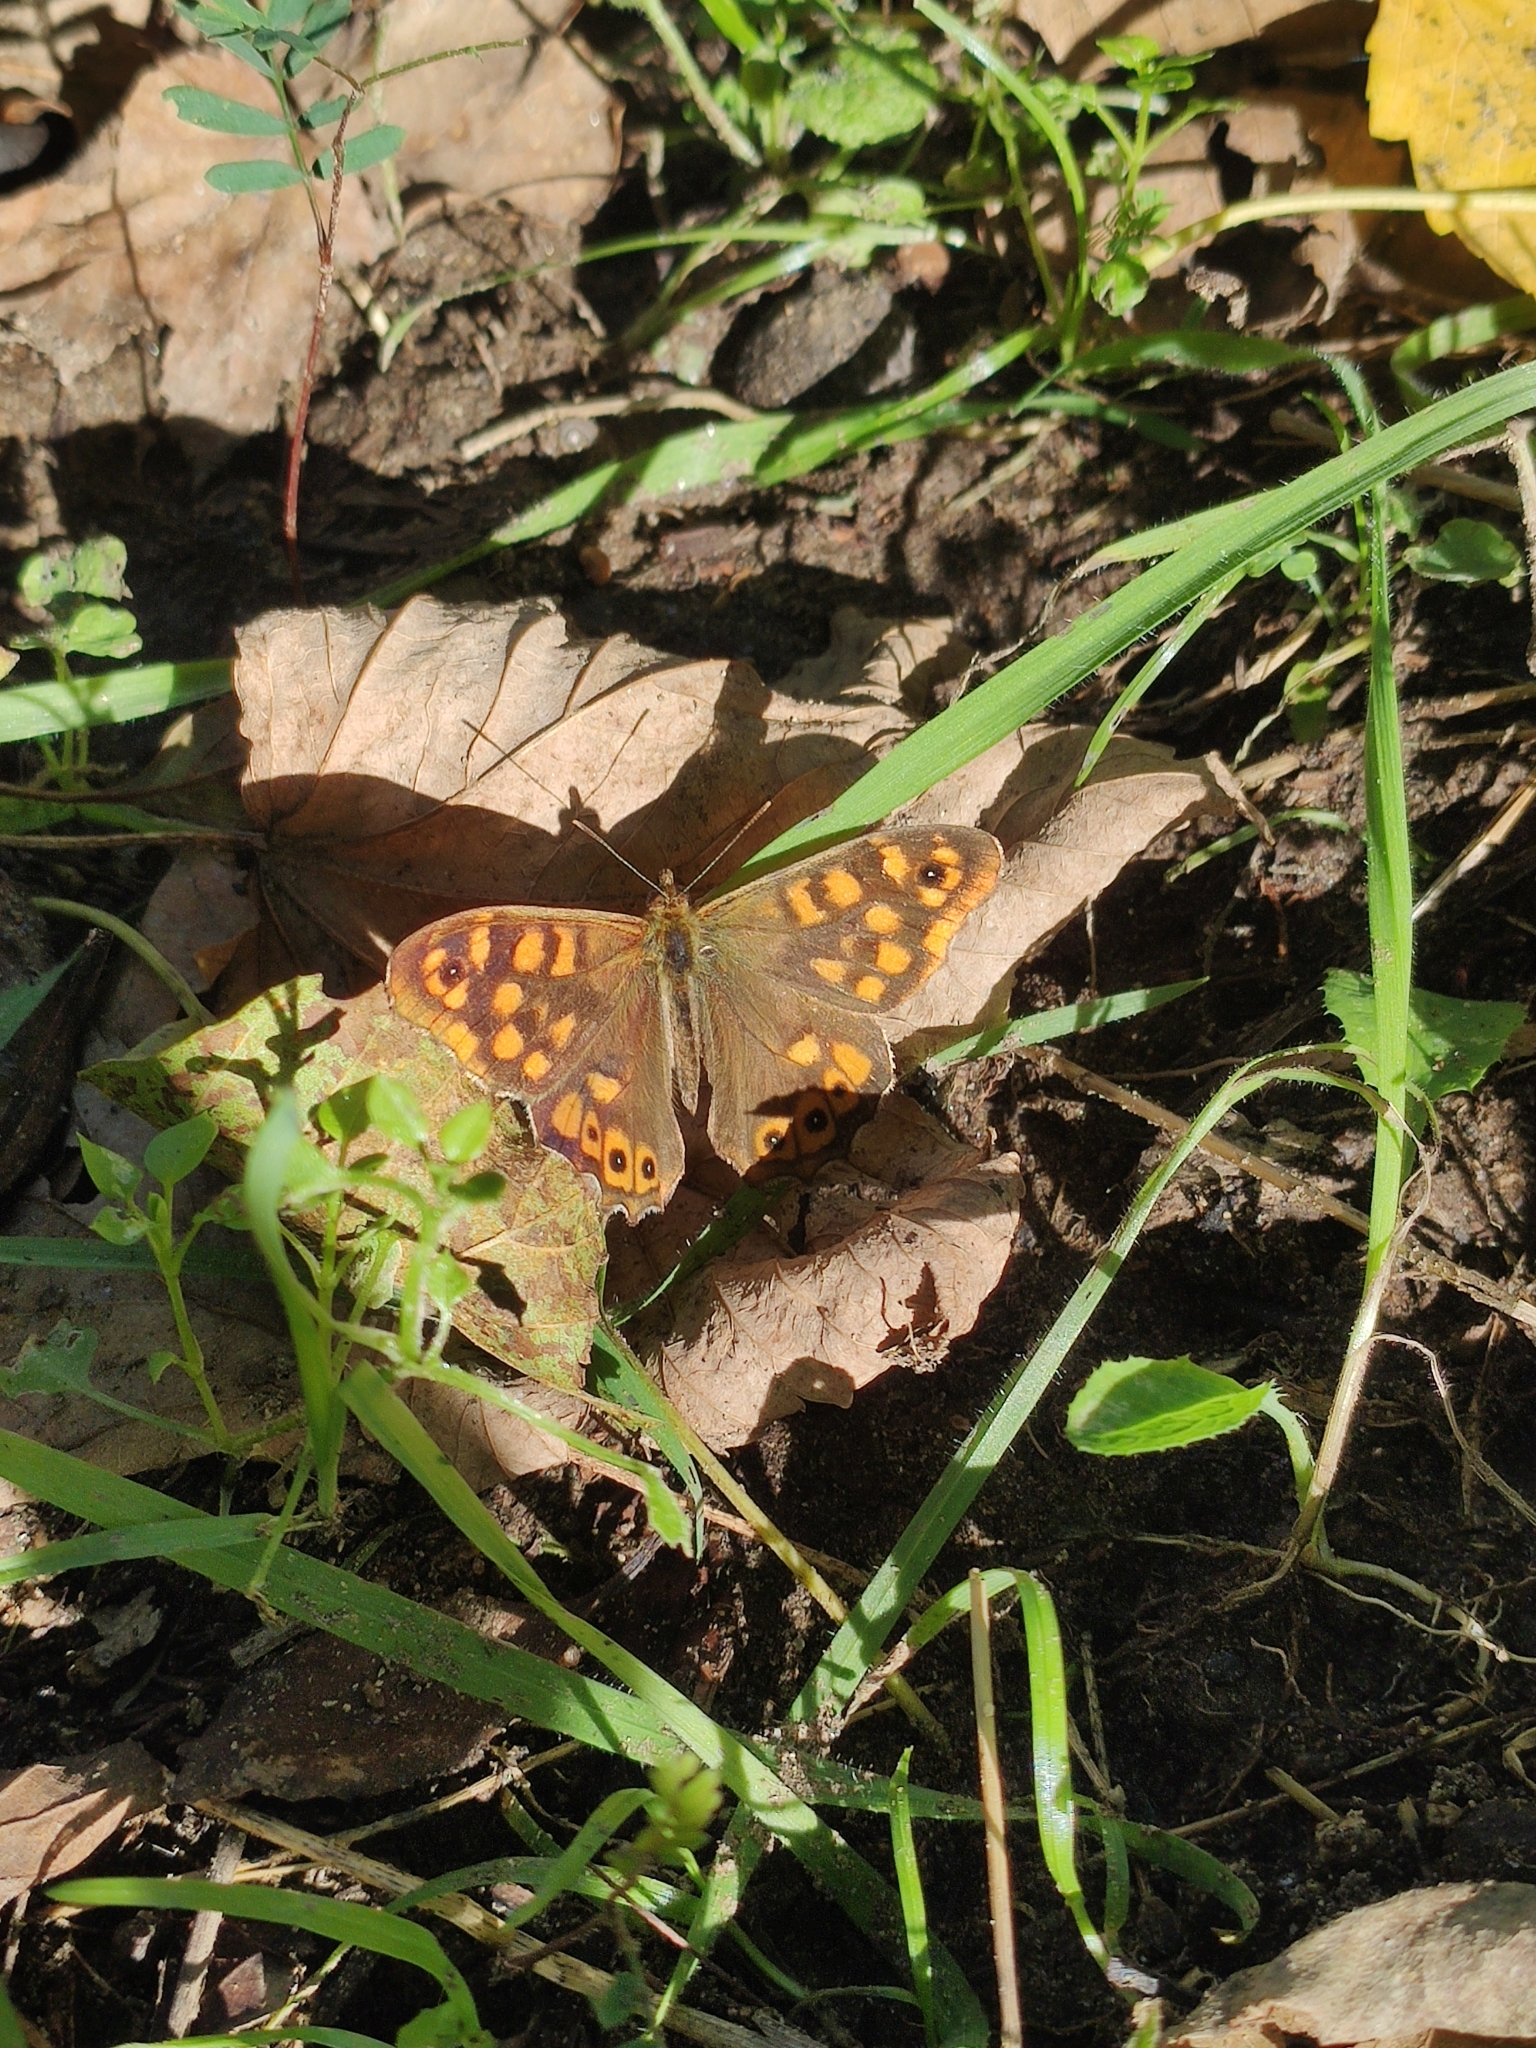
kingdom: Animalia
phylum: Arthropoda
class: Insecta
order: Lepidoptera
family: Nymphalidae
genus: Pararge
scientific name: Pararge aegeria
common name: Speckled wood
